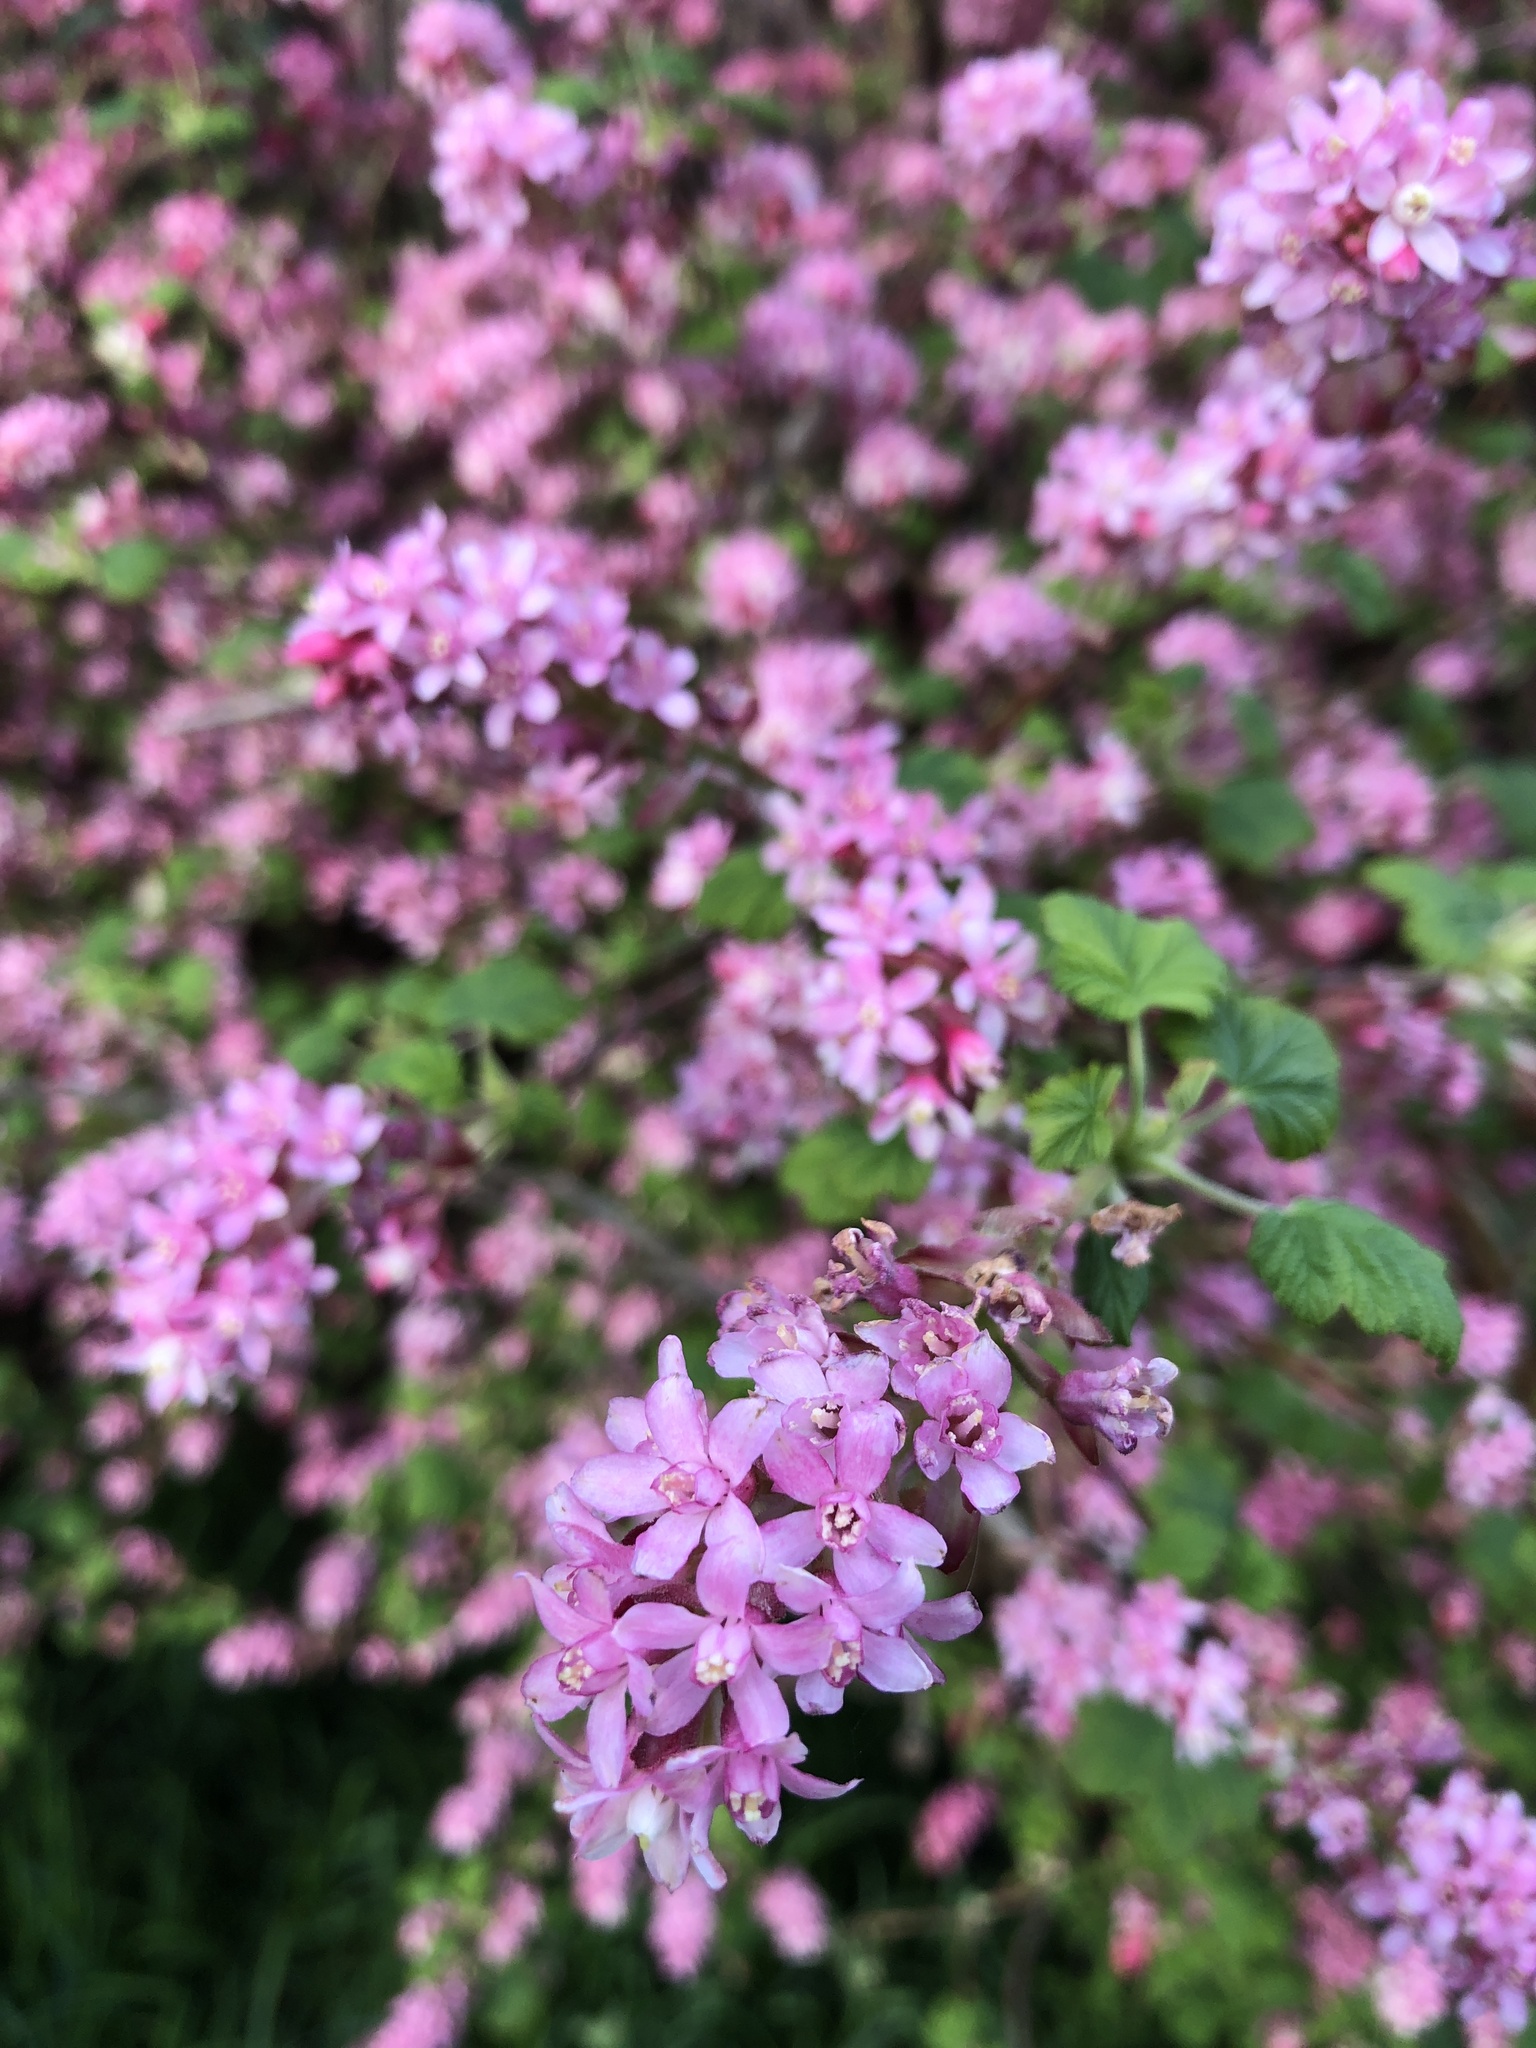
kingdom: Plantae
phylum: Tracheophyta
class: Magnoliopsida
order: Saxifragales
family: Grossulariaceae
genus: Ribes
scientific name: Ribes sanguineum
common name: Flowering currant
